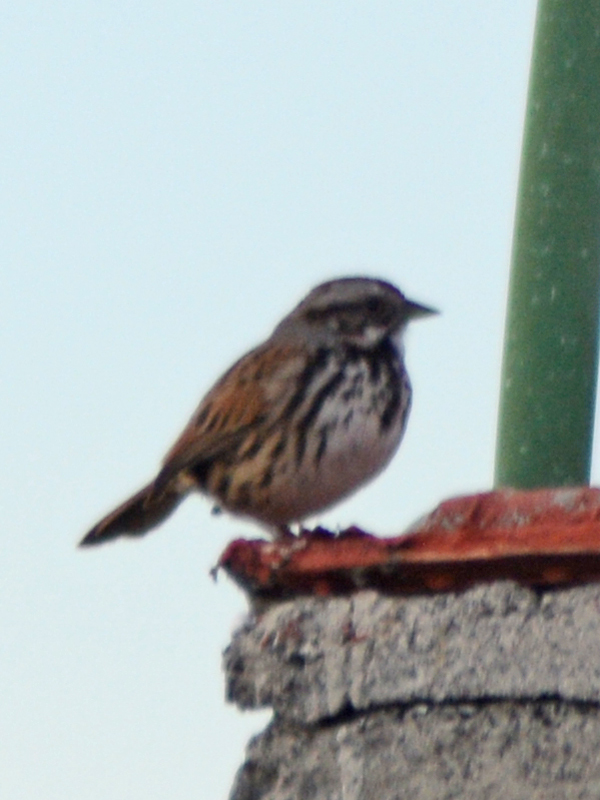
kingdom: Animalia
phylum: Chordata
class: Aves
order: Passeriformes
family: Passerellidae
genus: Melospiza
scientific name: Melospiza melodia
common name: Song sparrow
